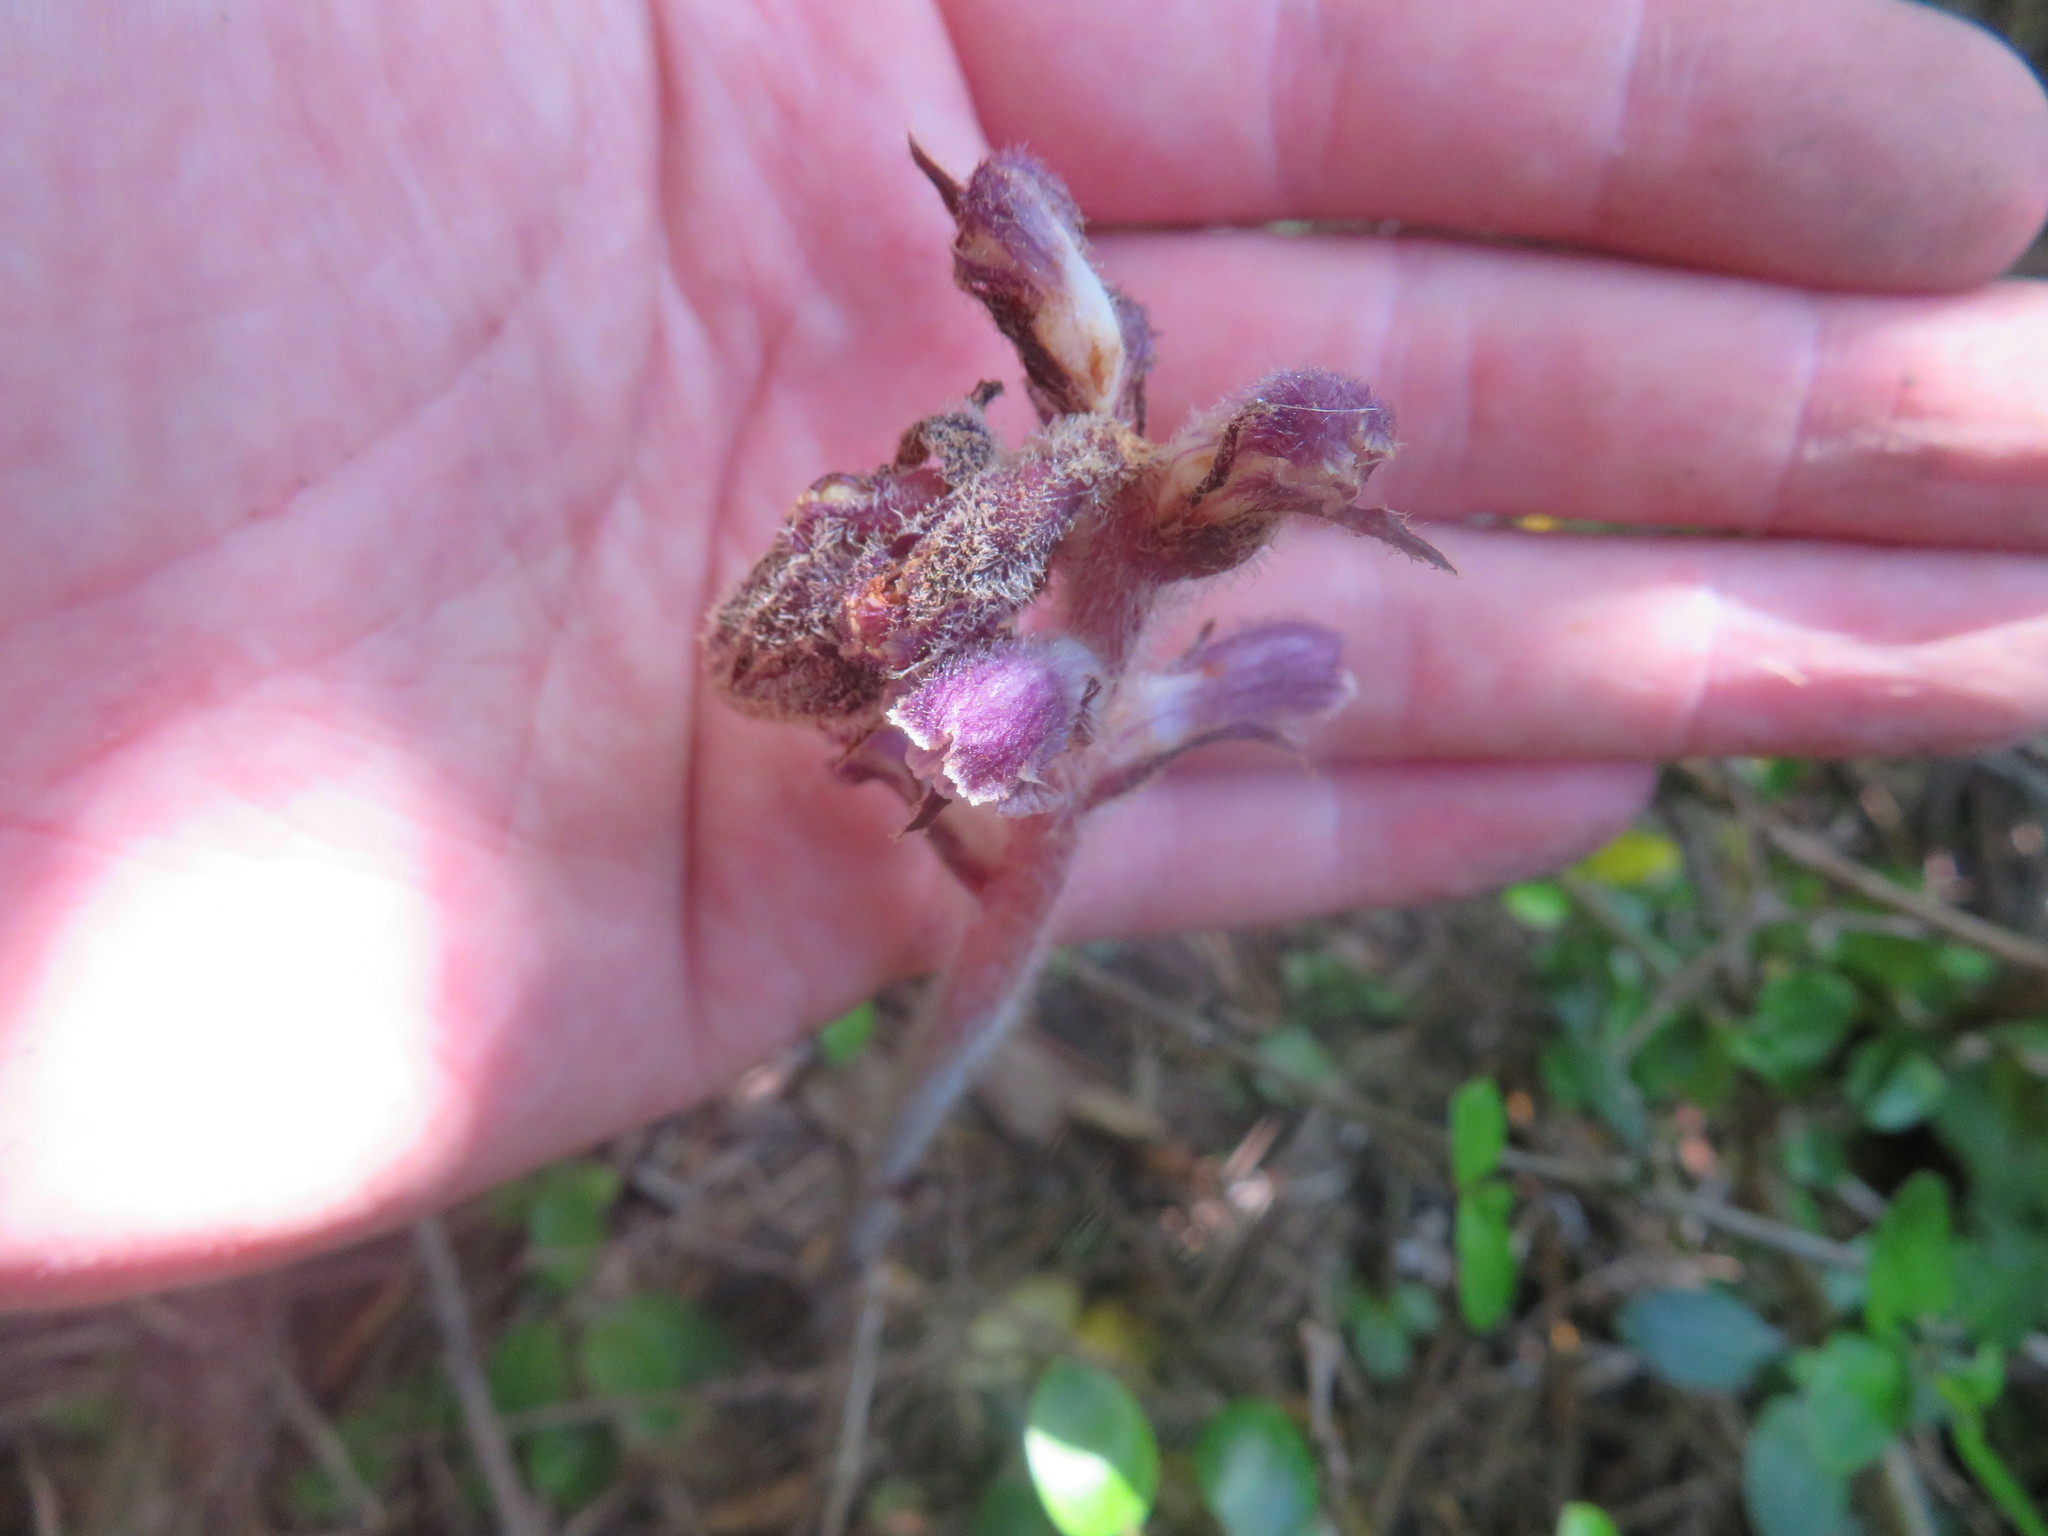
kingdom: Plantae
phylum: Tracheophyta
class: Magnoliopsida
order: Lamiales
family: Orobanchaceae
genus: Orobanche
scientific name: Orobanche minor
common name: Common broomrape
